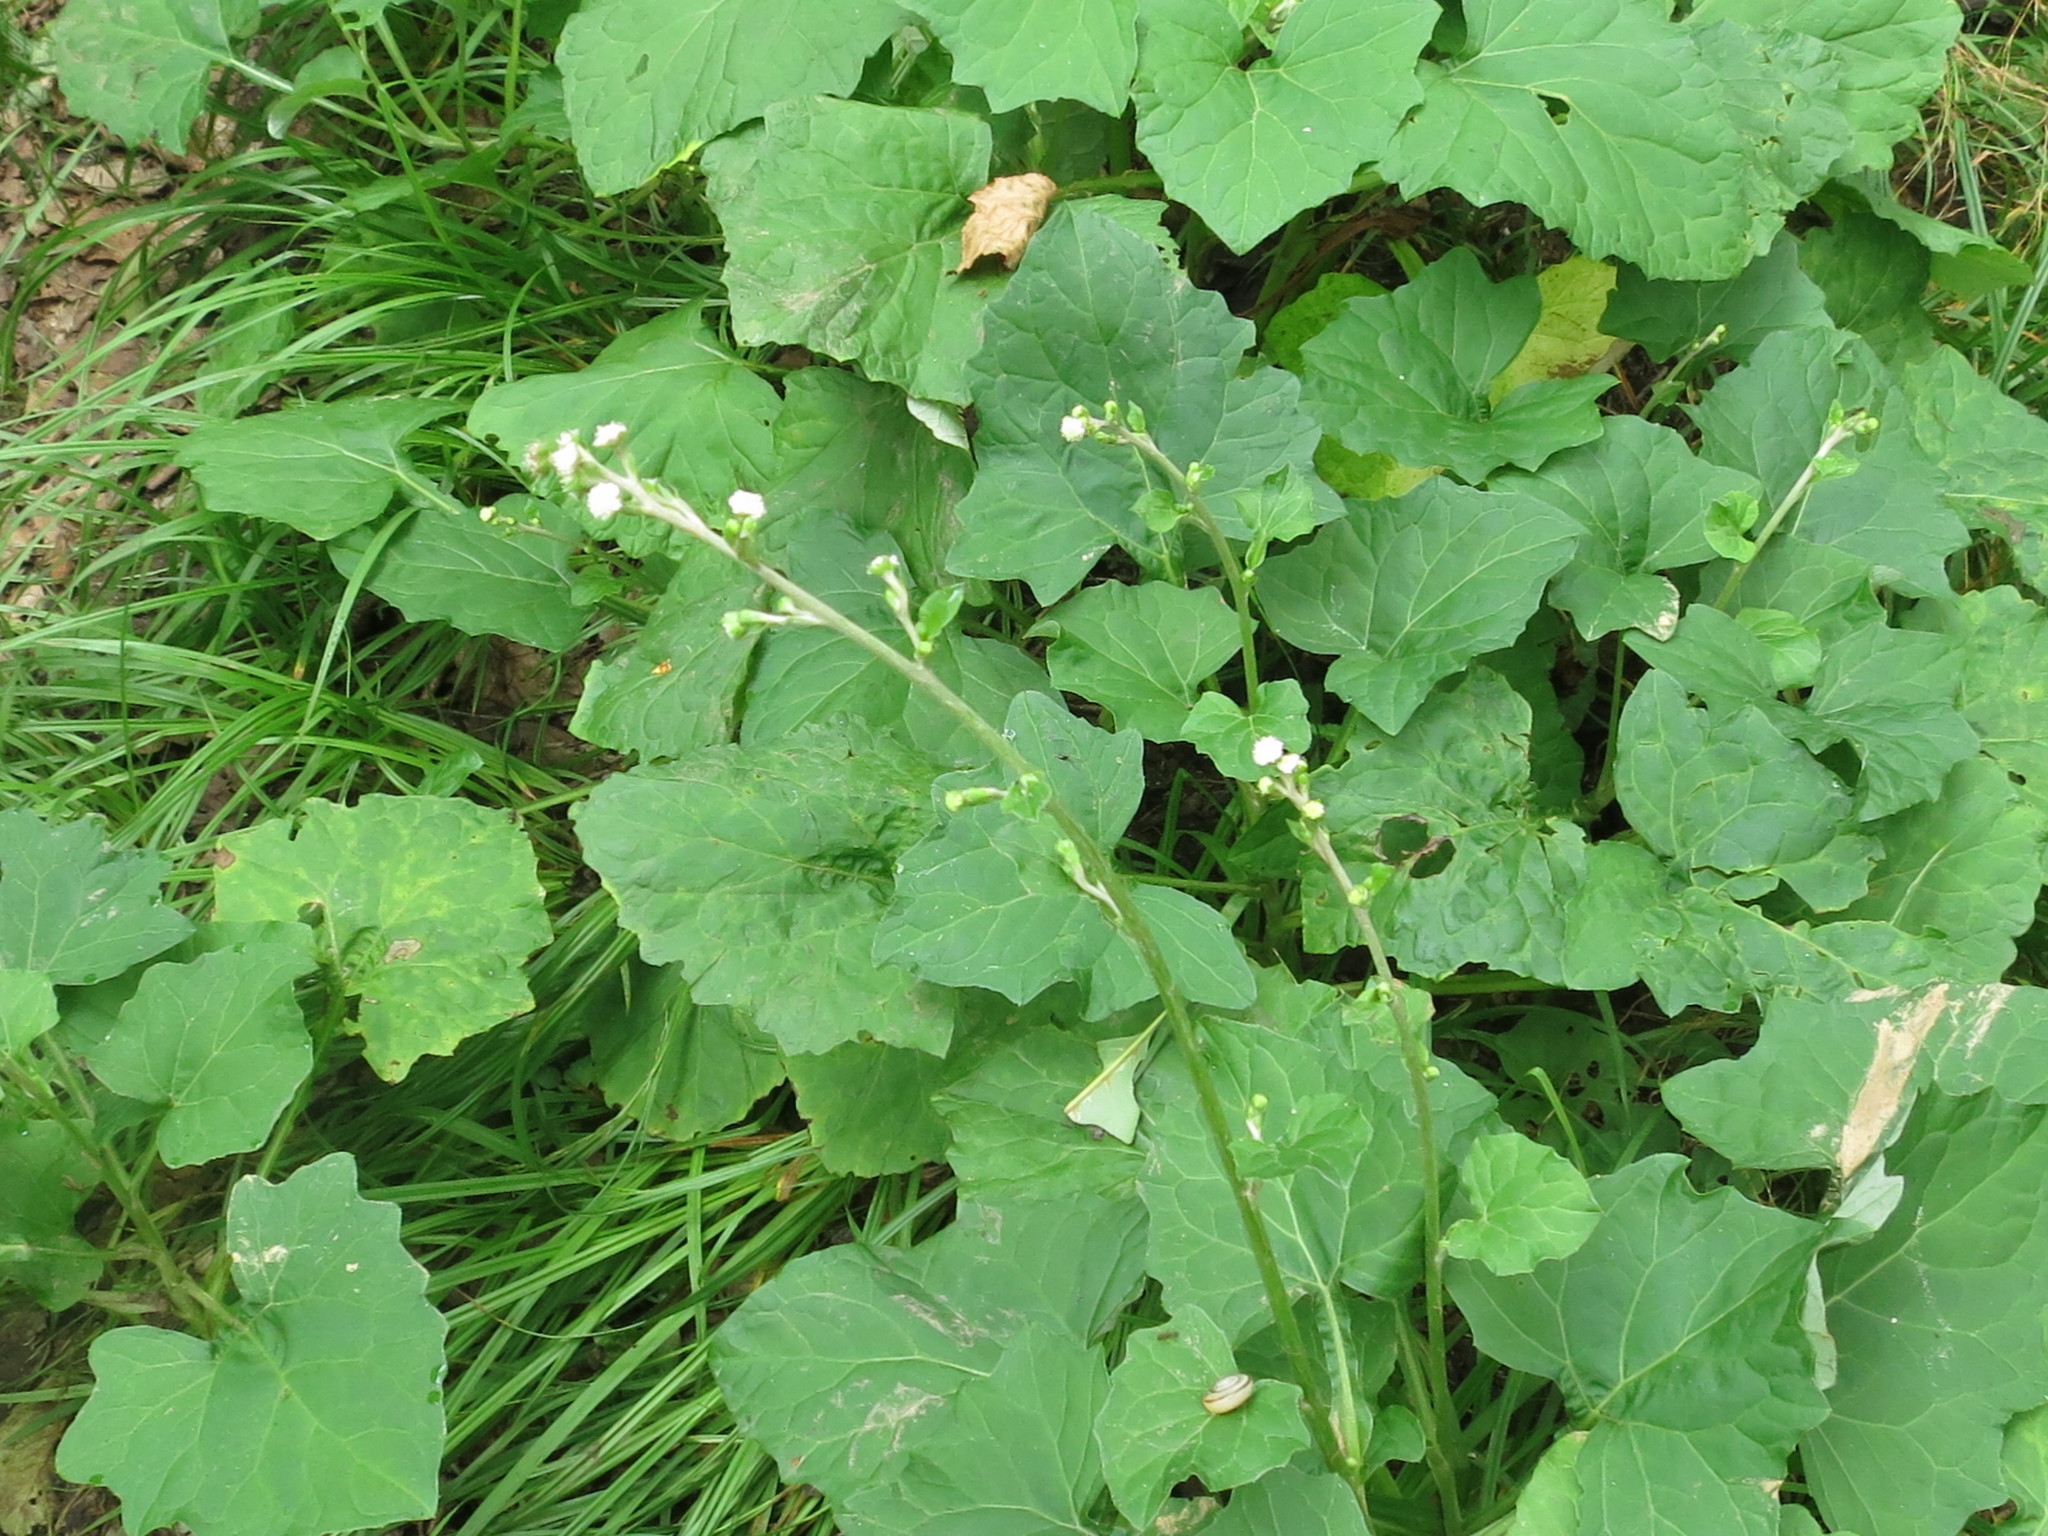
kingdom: Plantae
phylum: Tracheophyta
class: Magnoliopsida
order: Asterales
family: Asteraceae
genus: Adenocaulon
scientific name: Adenocaulon himalaicum
